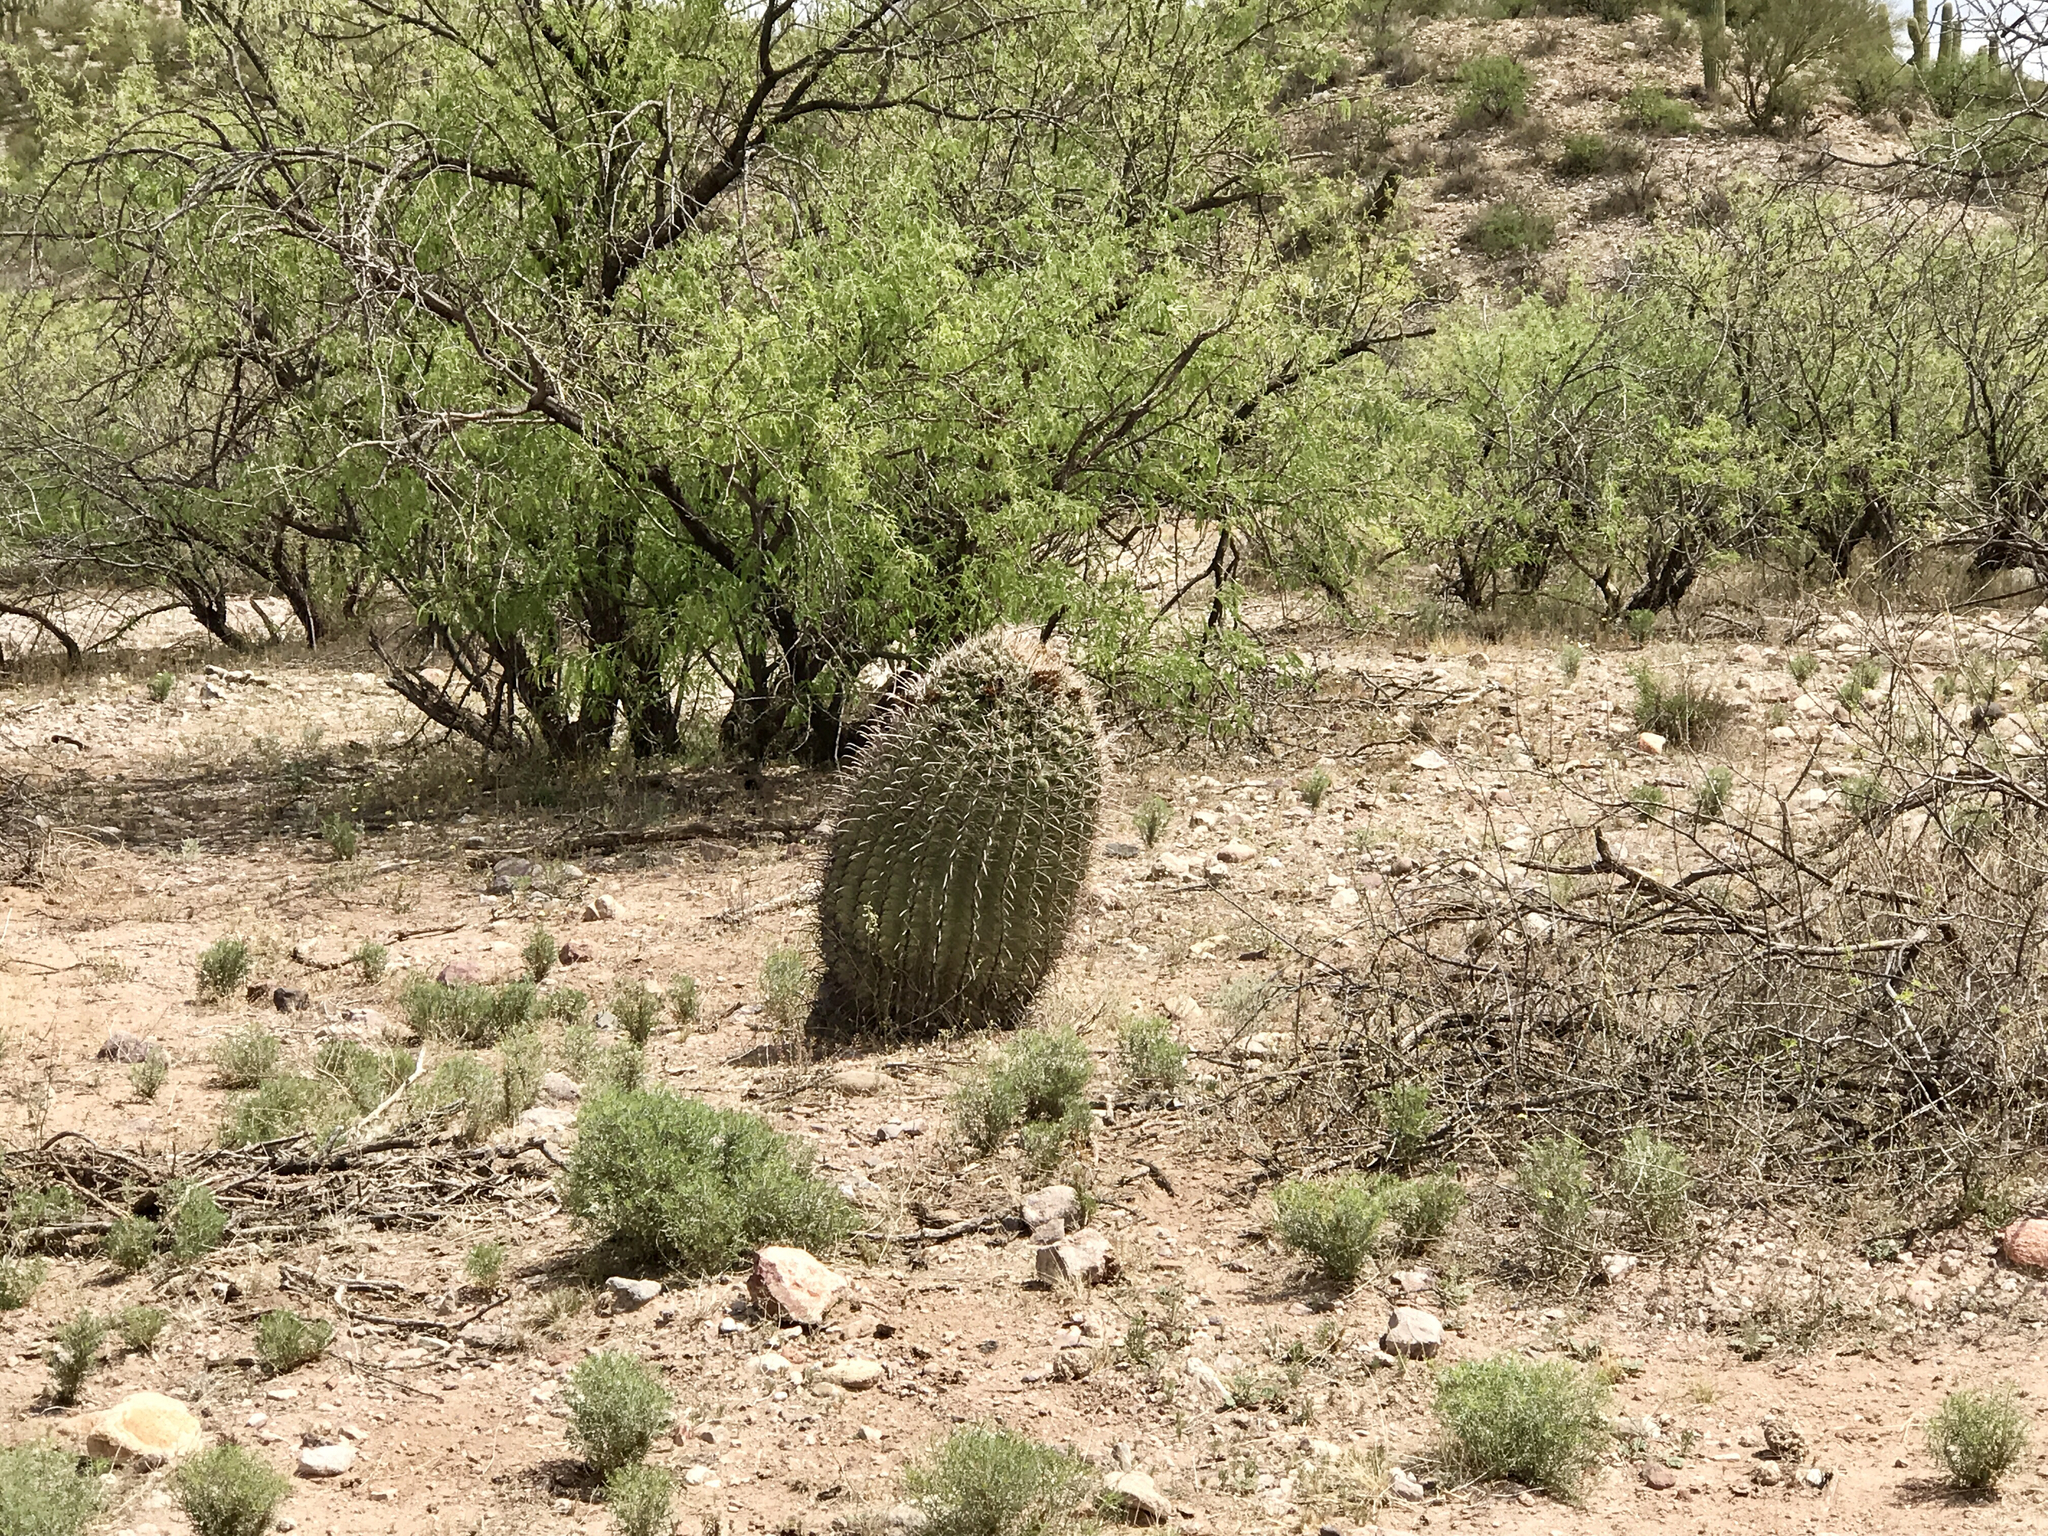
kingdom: Plantae
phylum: Tracheophyta
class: Magnoliopsida
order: Caryophyllales
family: Cactaceae
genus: Ferocactus
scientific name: Ferocactus wislizeni
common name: Candy barrel cactus
